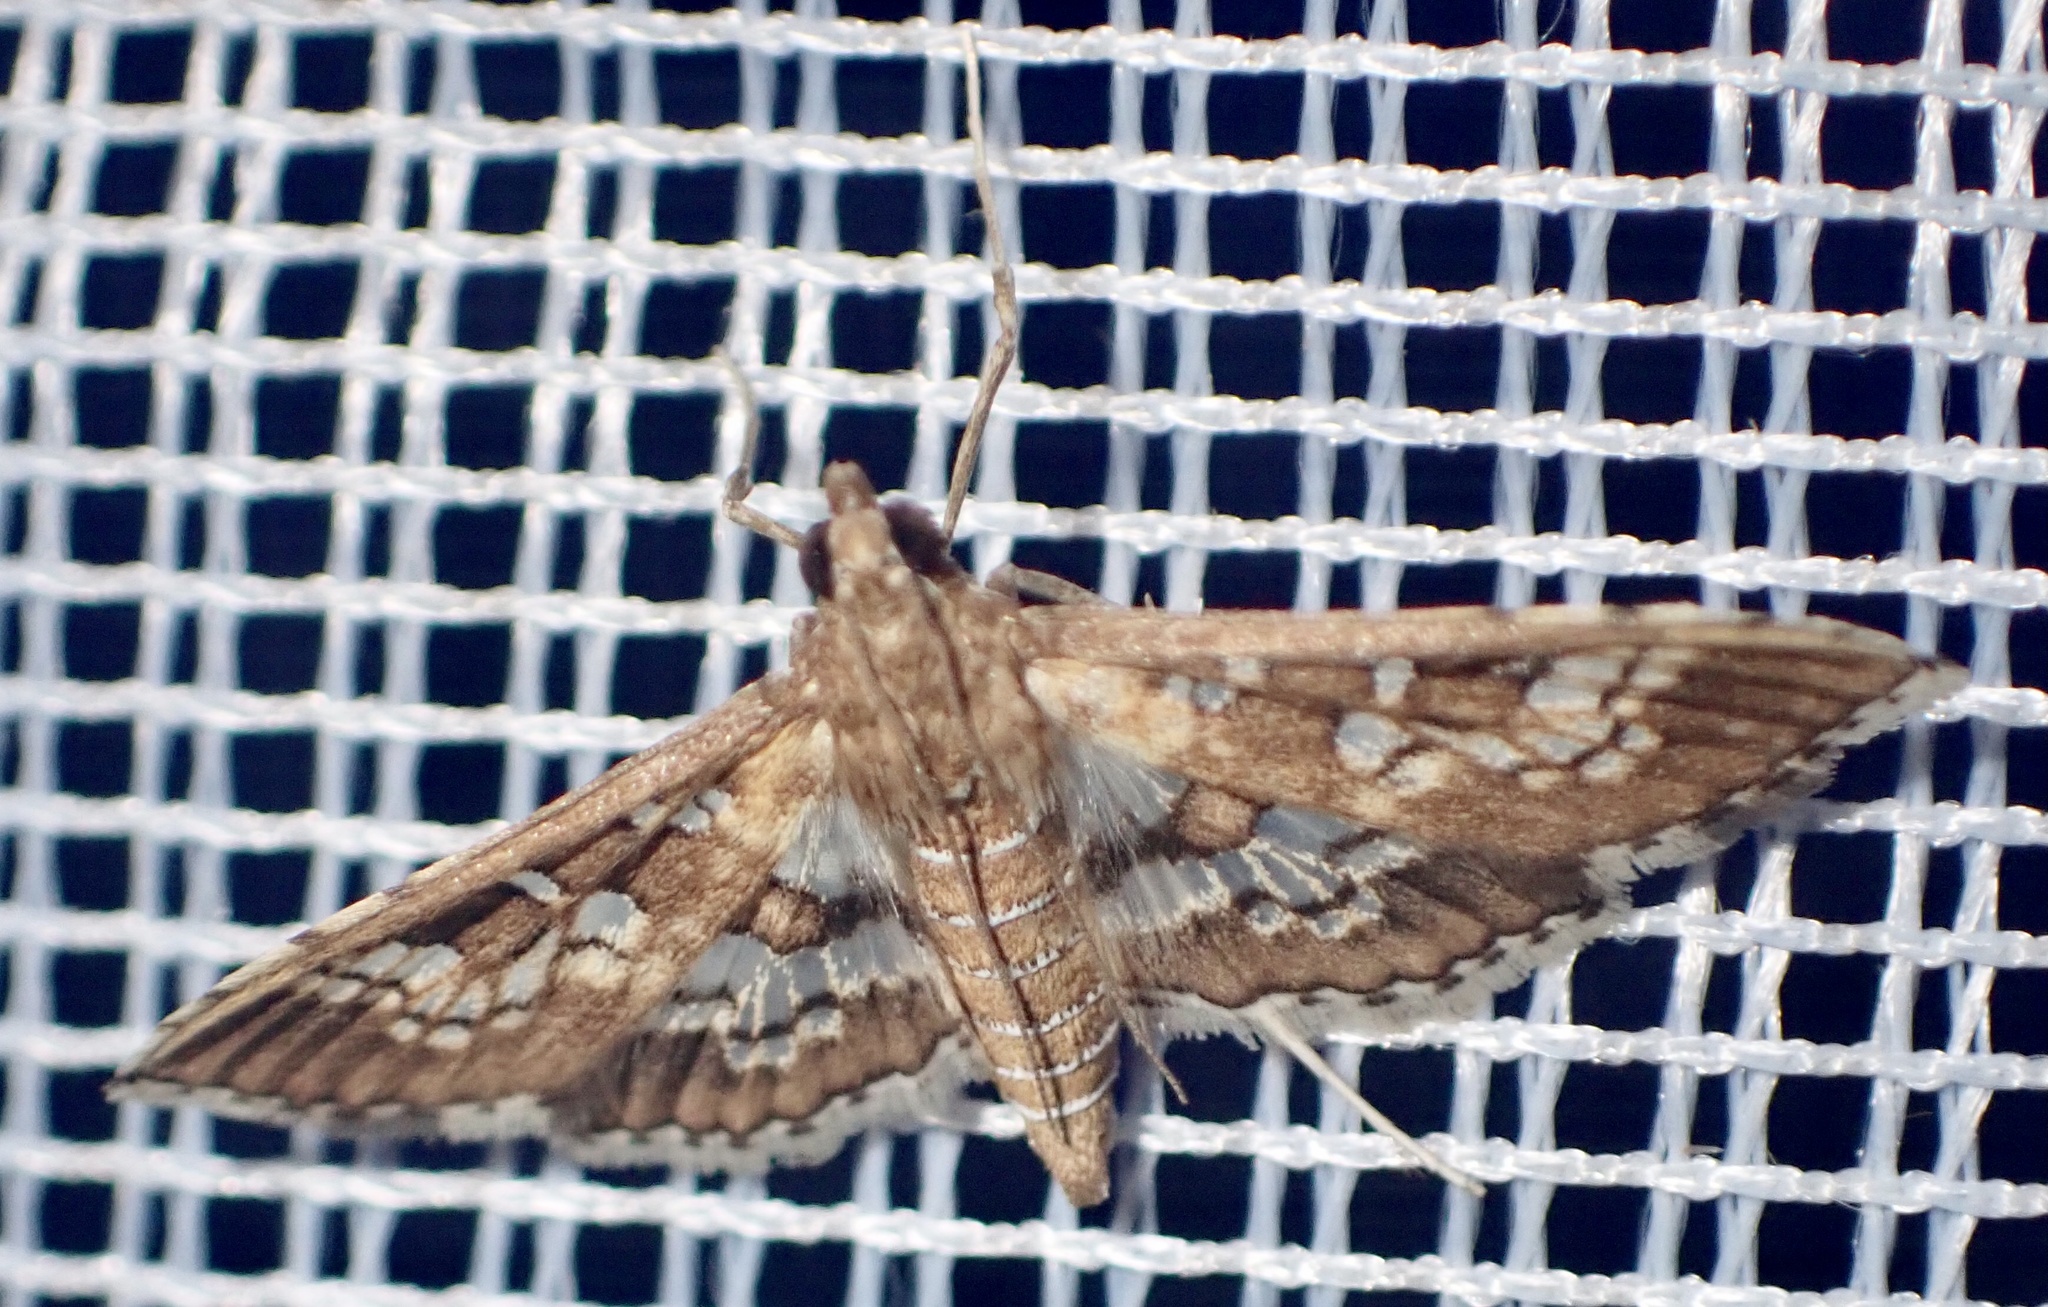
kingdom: Animalia
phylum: Arthropoda
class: Insecta
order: Lepidoptera
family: Crambidae
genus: Sameodes
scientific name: Sameodes cancellalis
